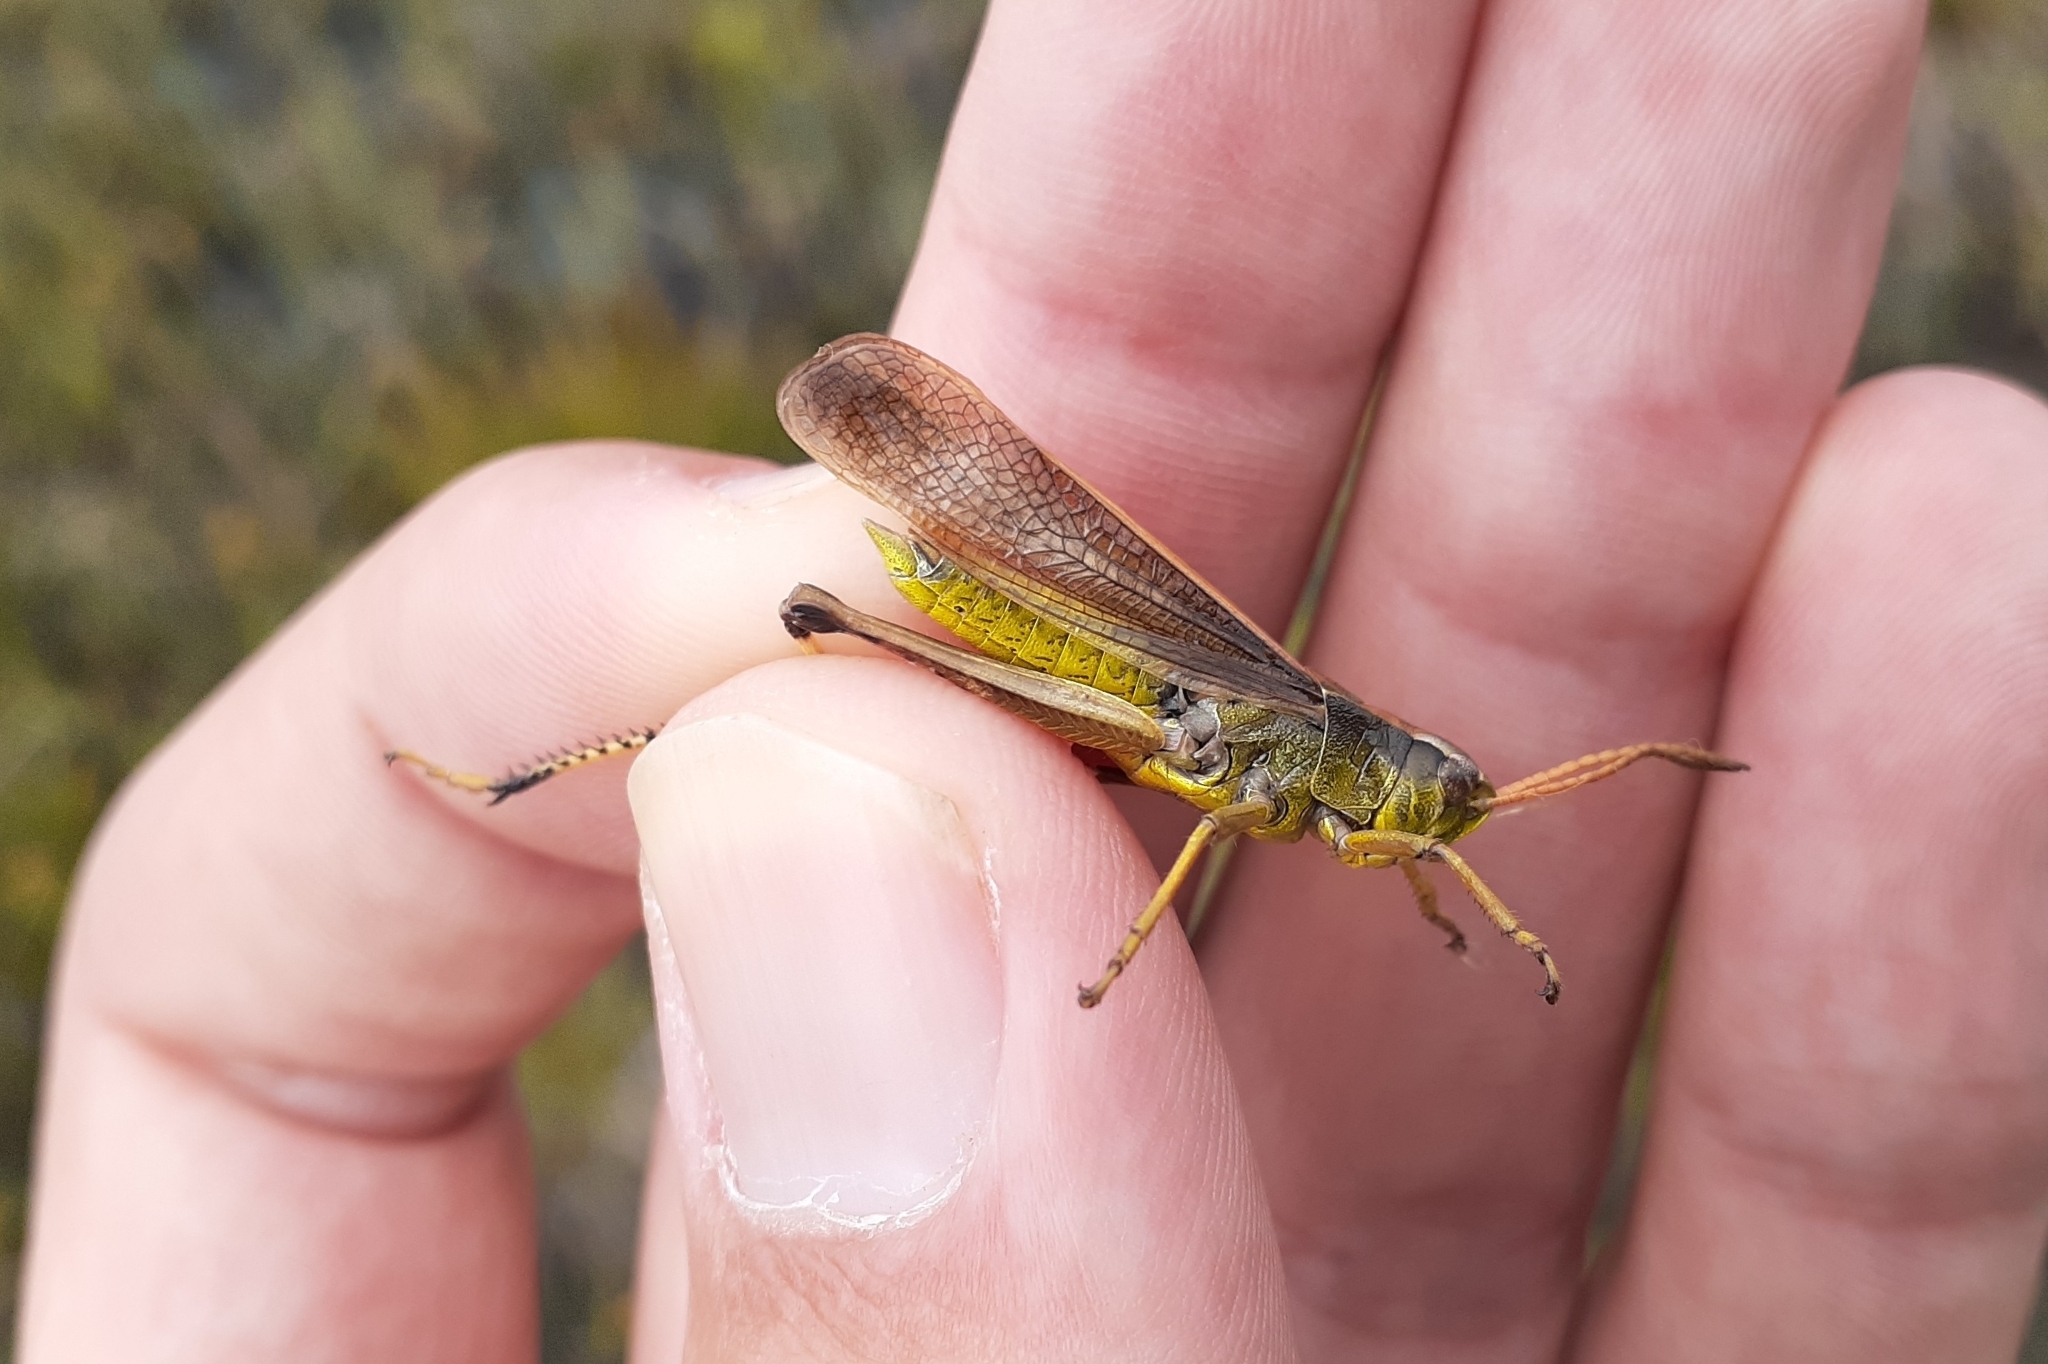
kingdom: Animalia
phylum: Arthropoda
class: Insecta
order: Orthoptera
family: Acrididae
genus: Stethophyma
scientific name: Stethophyma gracile
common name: Graceful sedge grasshopper
